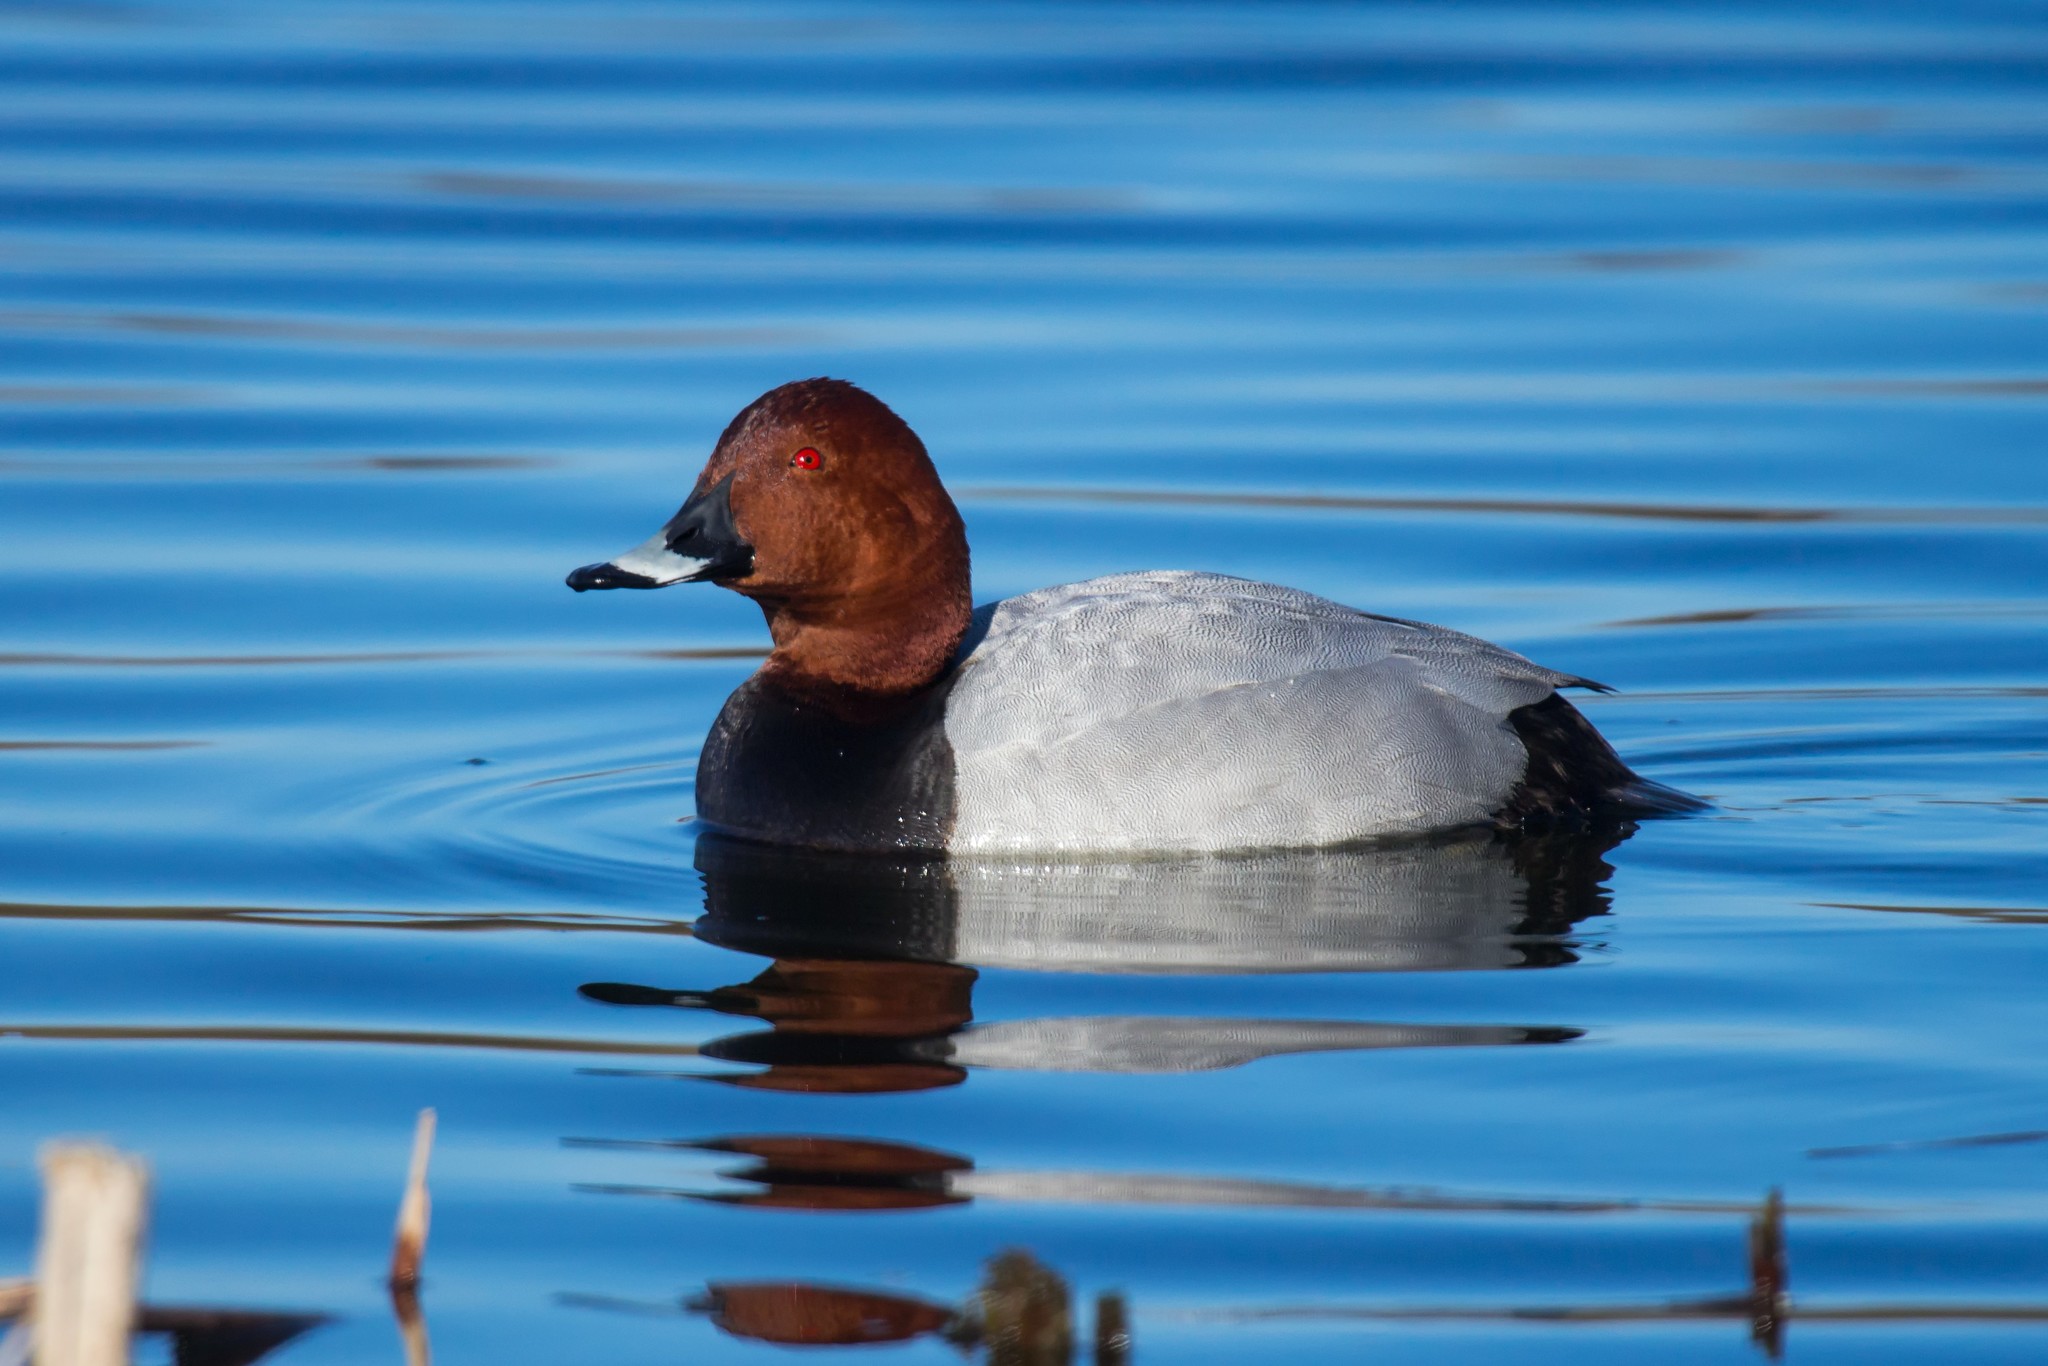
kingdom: Animalia
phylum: Chordata
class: Aves
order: Anseriformes
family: Anatidae
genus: Aythya
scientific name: Aythya ferina
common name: Common pochard
